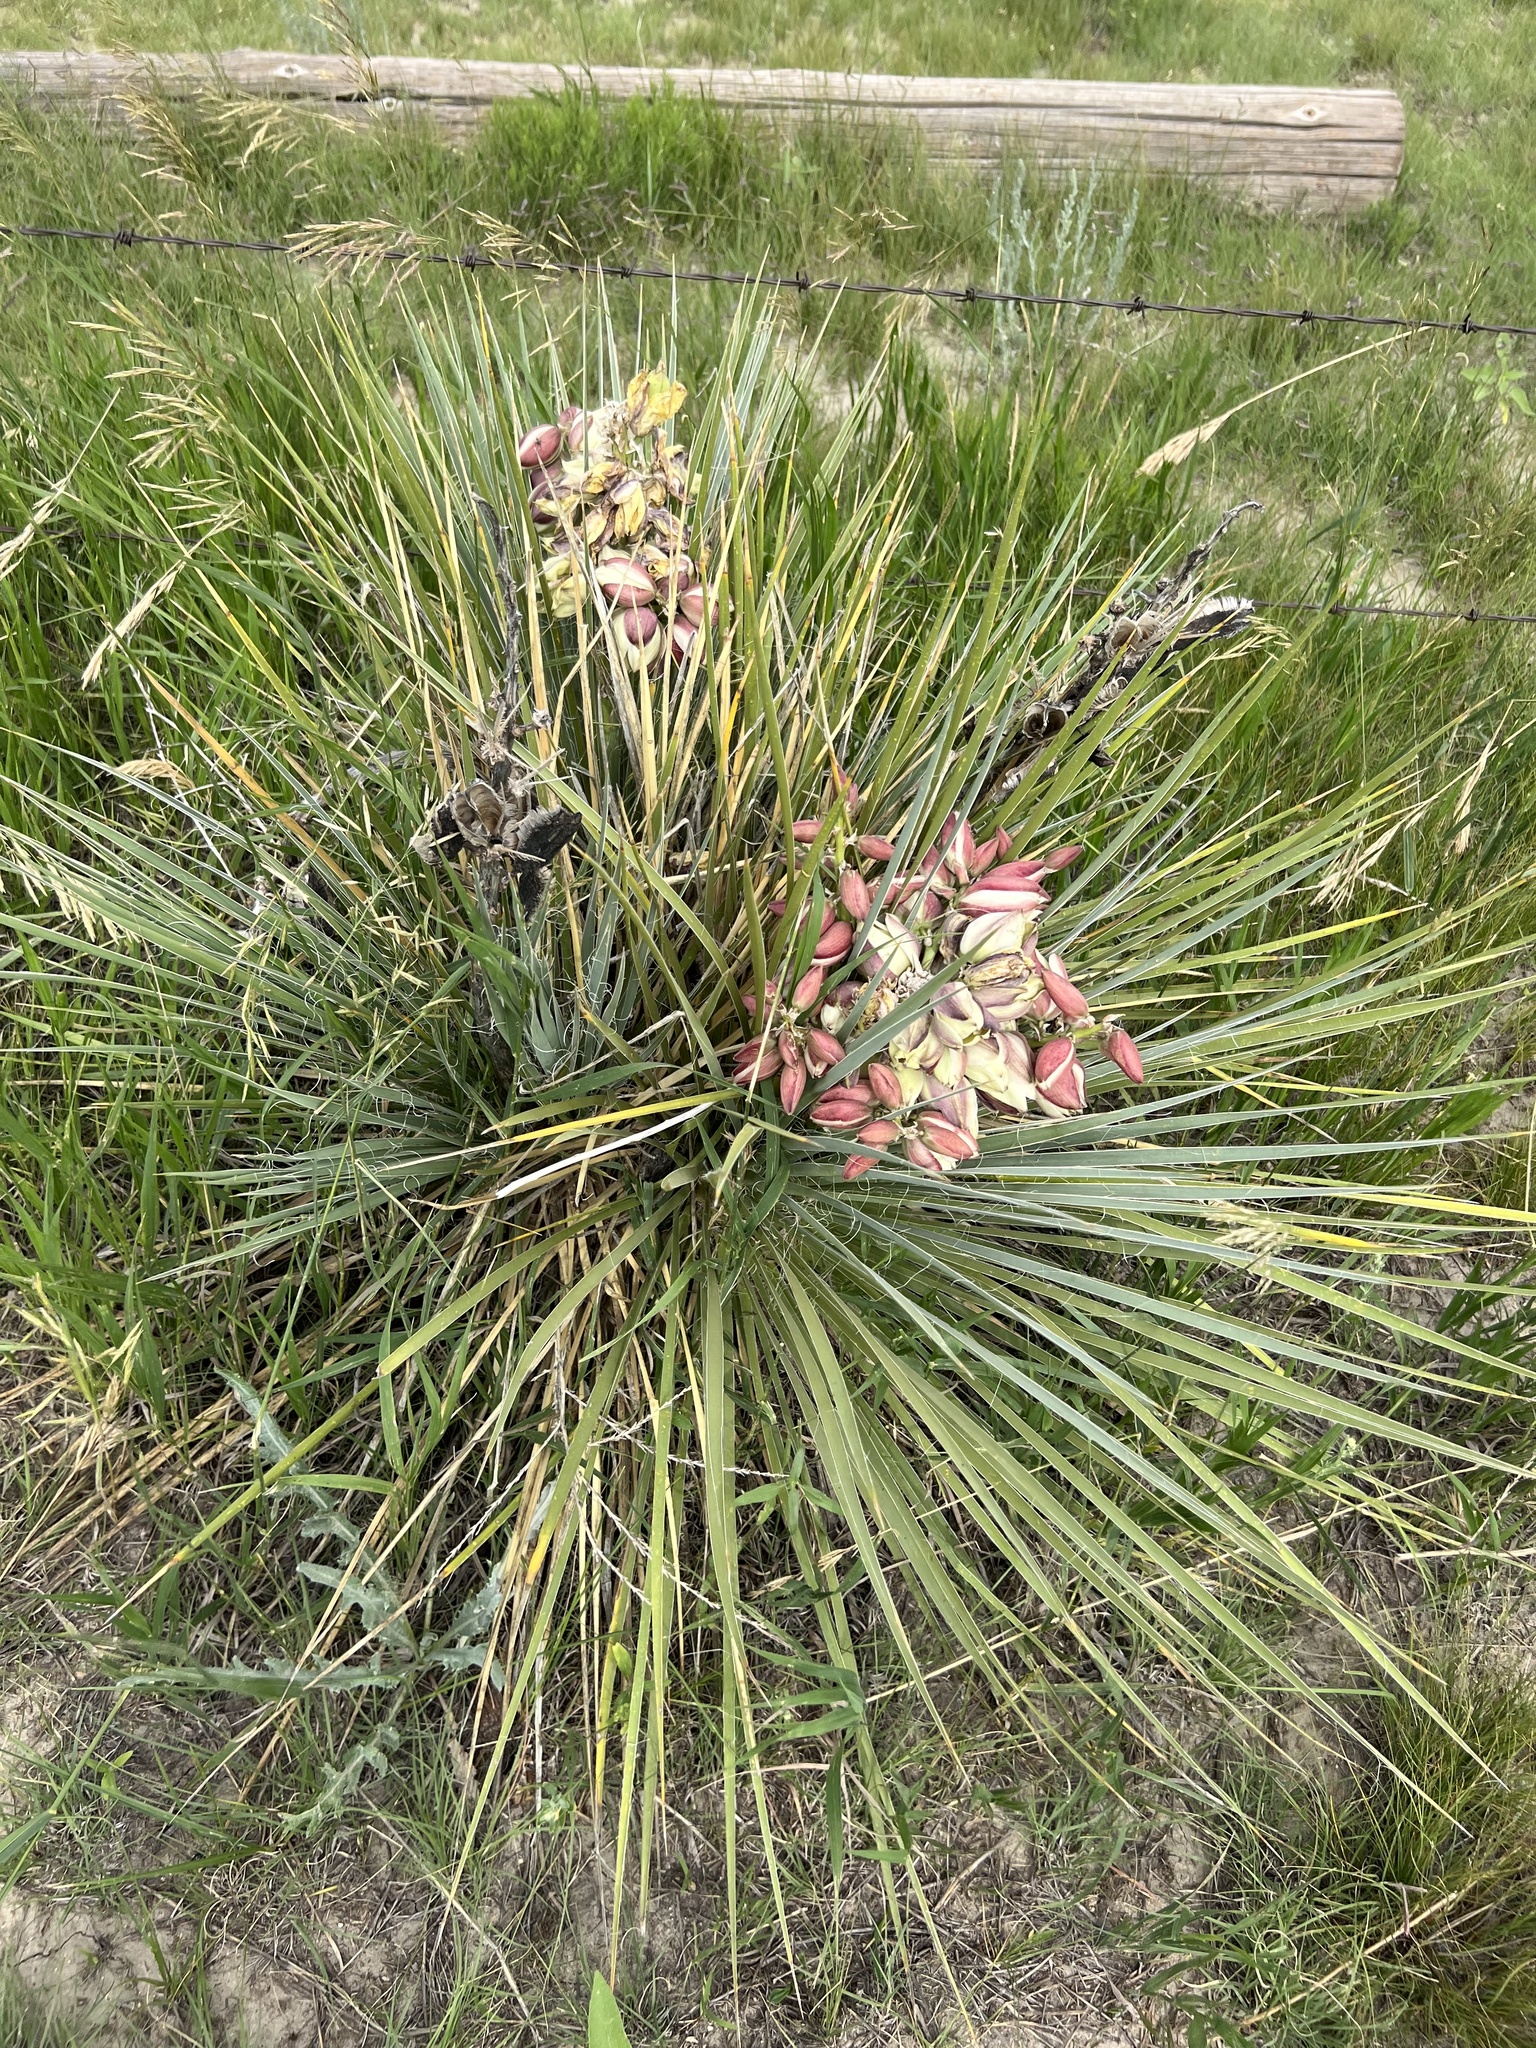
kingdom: Plantae
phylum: Tracheophyta
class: Liliopsida
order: Asparagales
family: Asparagaceae
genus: Yucca
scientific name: Yucca glauca
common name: Great plains yucca
